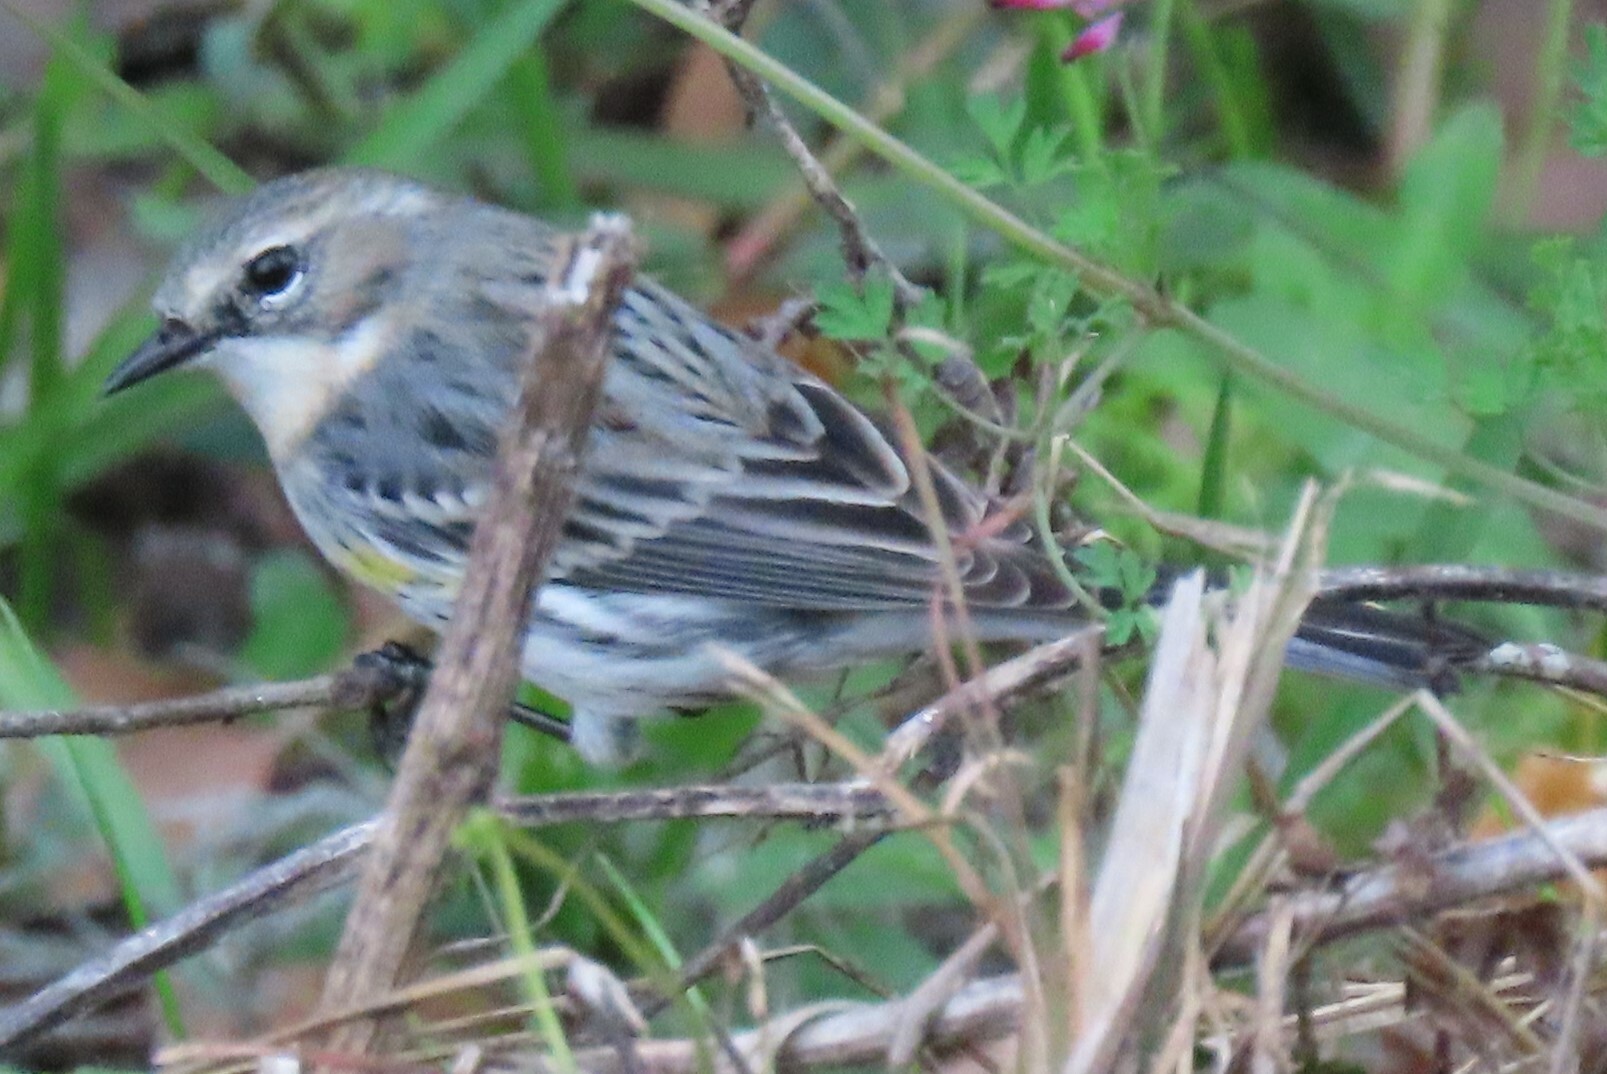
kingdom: Animalia
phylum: Chordata
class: Aves
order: Passeriformes
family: Parulidae
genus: Setophaga
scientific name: Setophaga coronata
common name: Myrtle warbler
